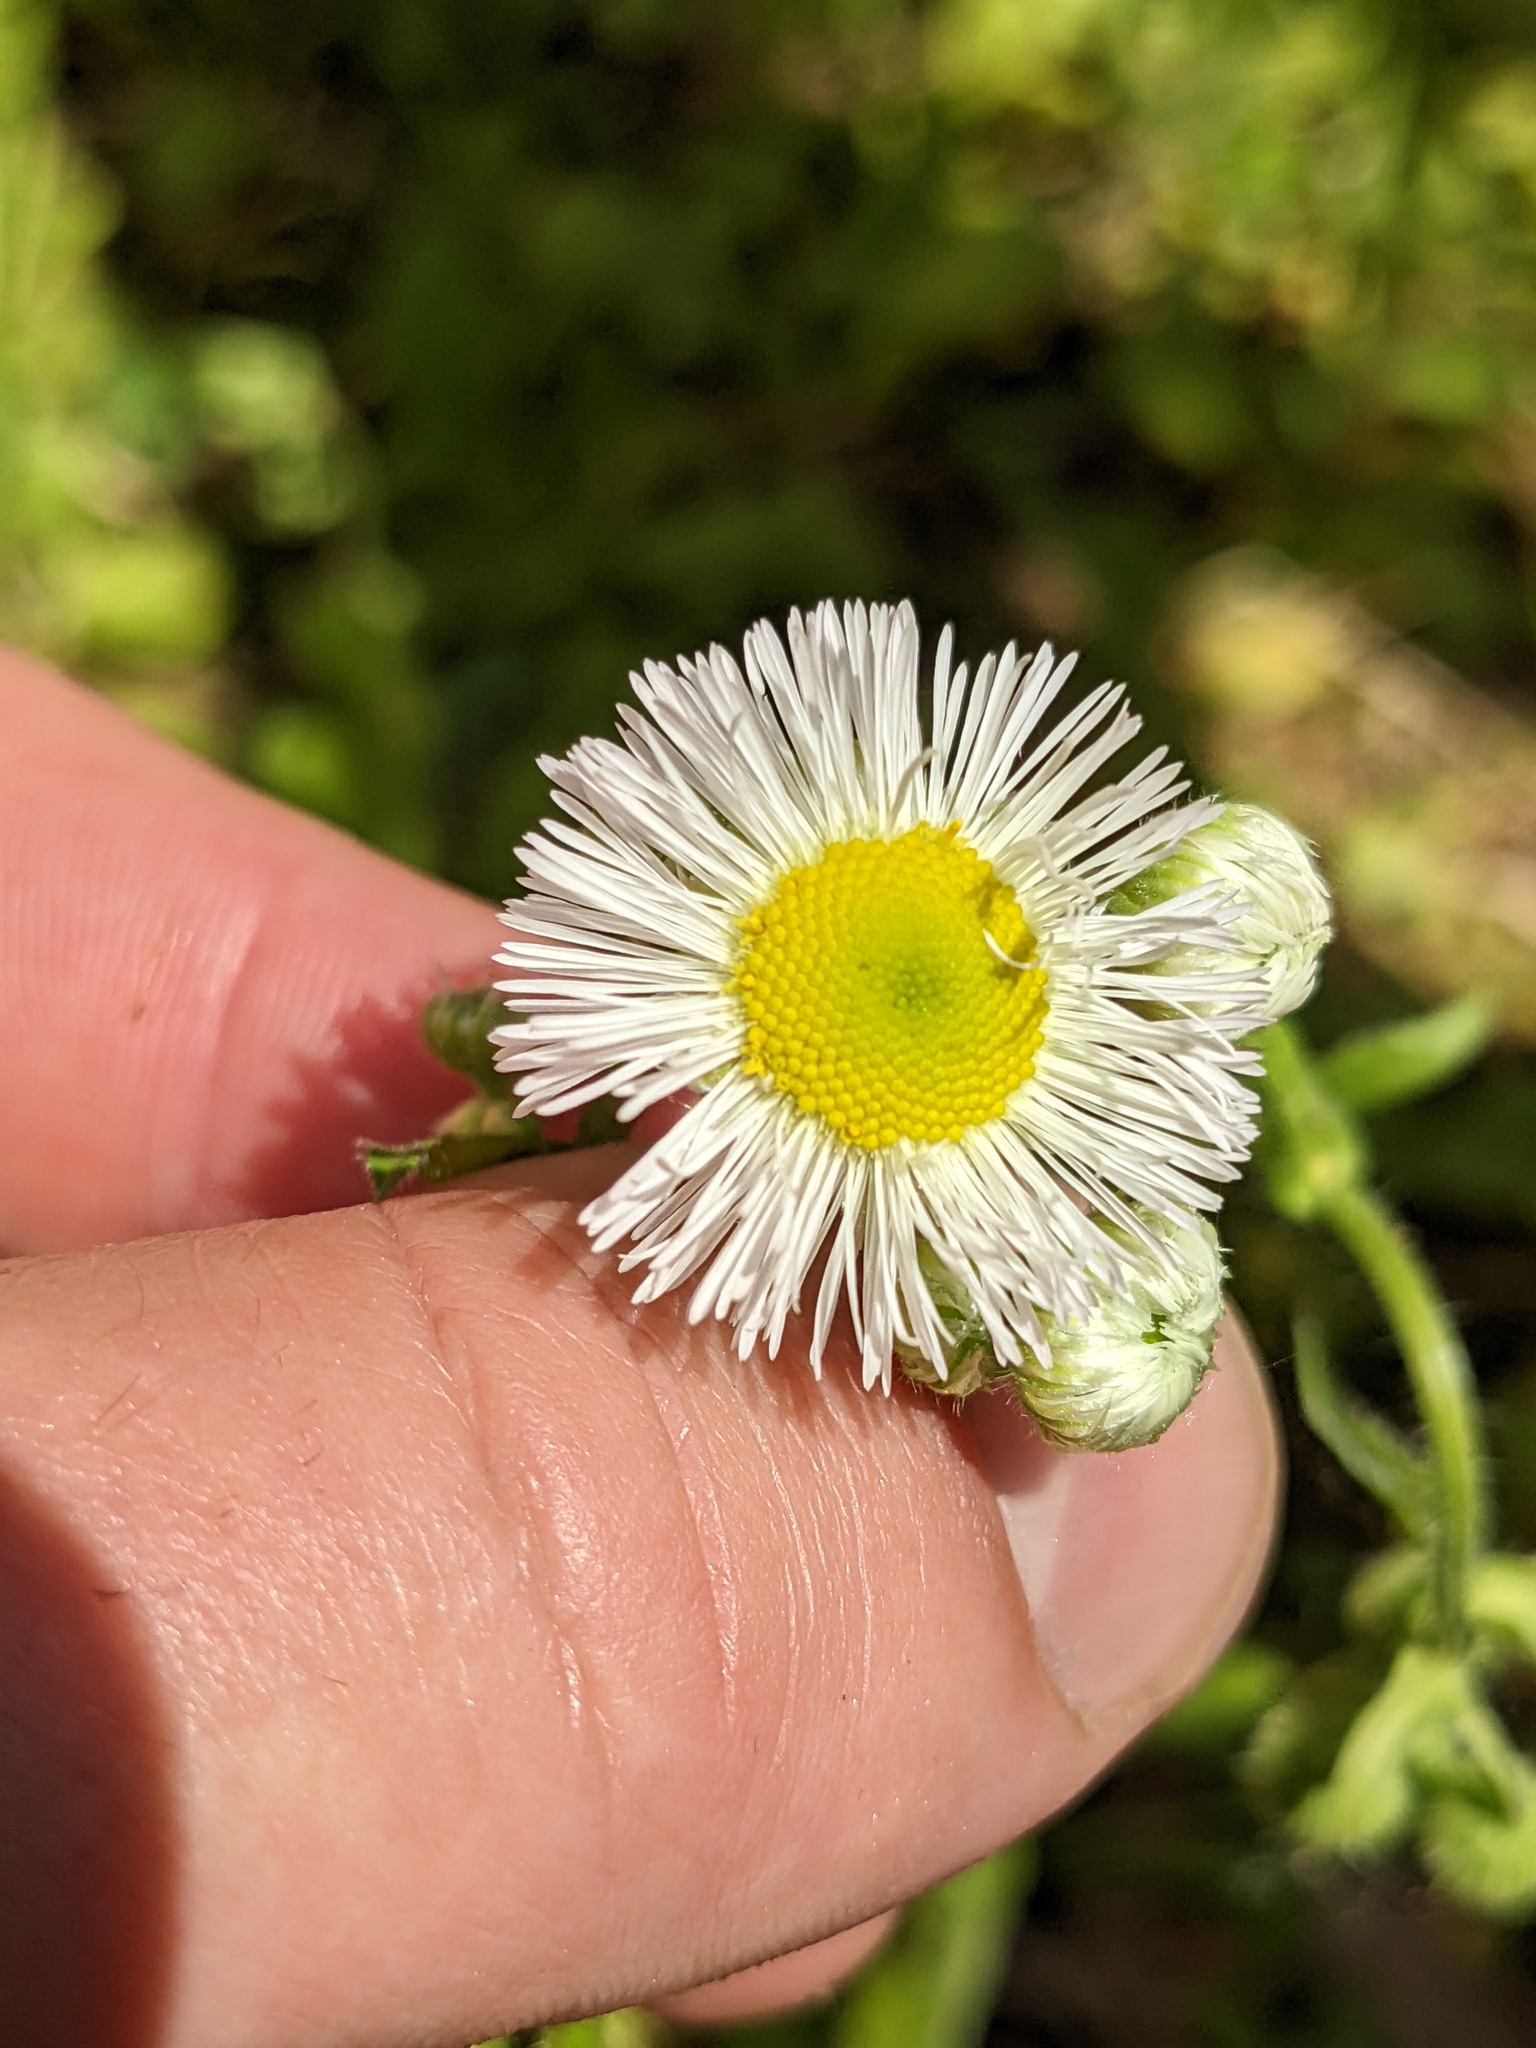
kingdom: Plantae
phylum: Tracheophyta
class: Magnoliopsida
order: Asterales
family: Asteraceae
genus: Erigeron
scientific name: Erigeron philadelphicus
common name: Robin's-plantain
